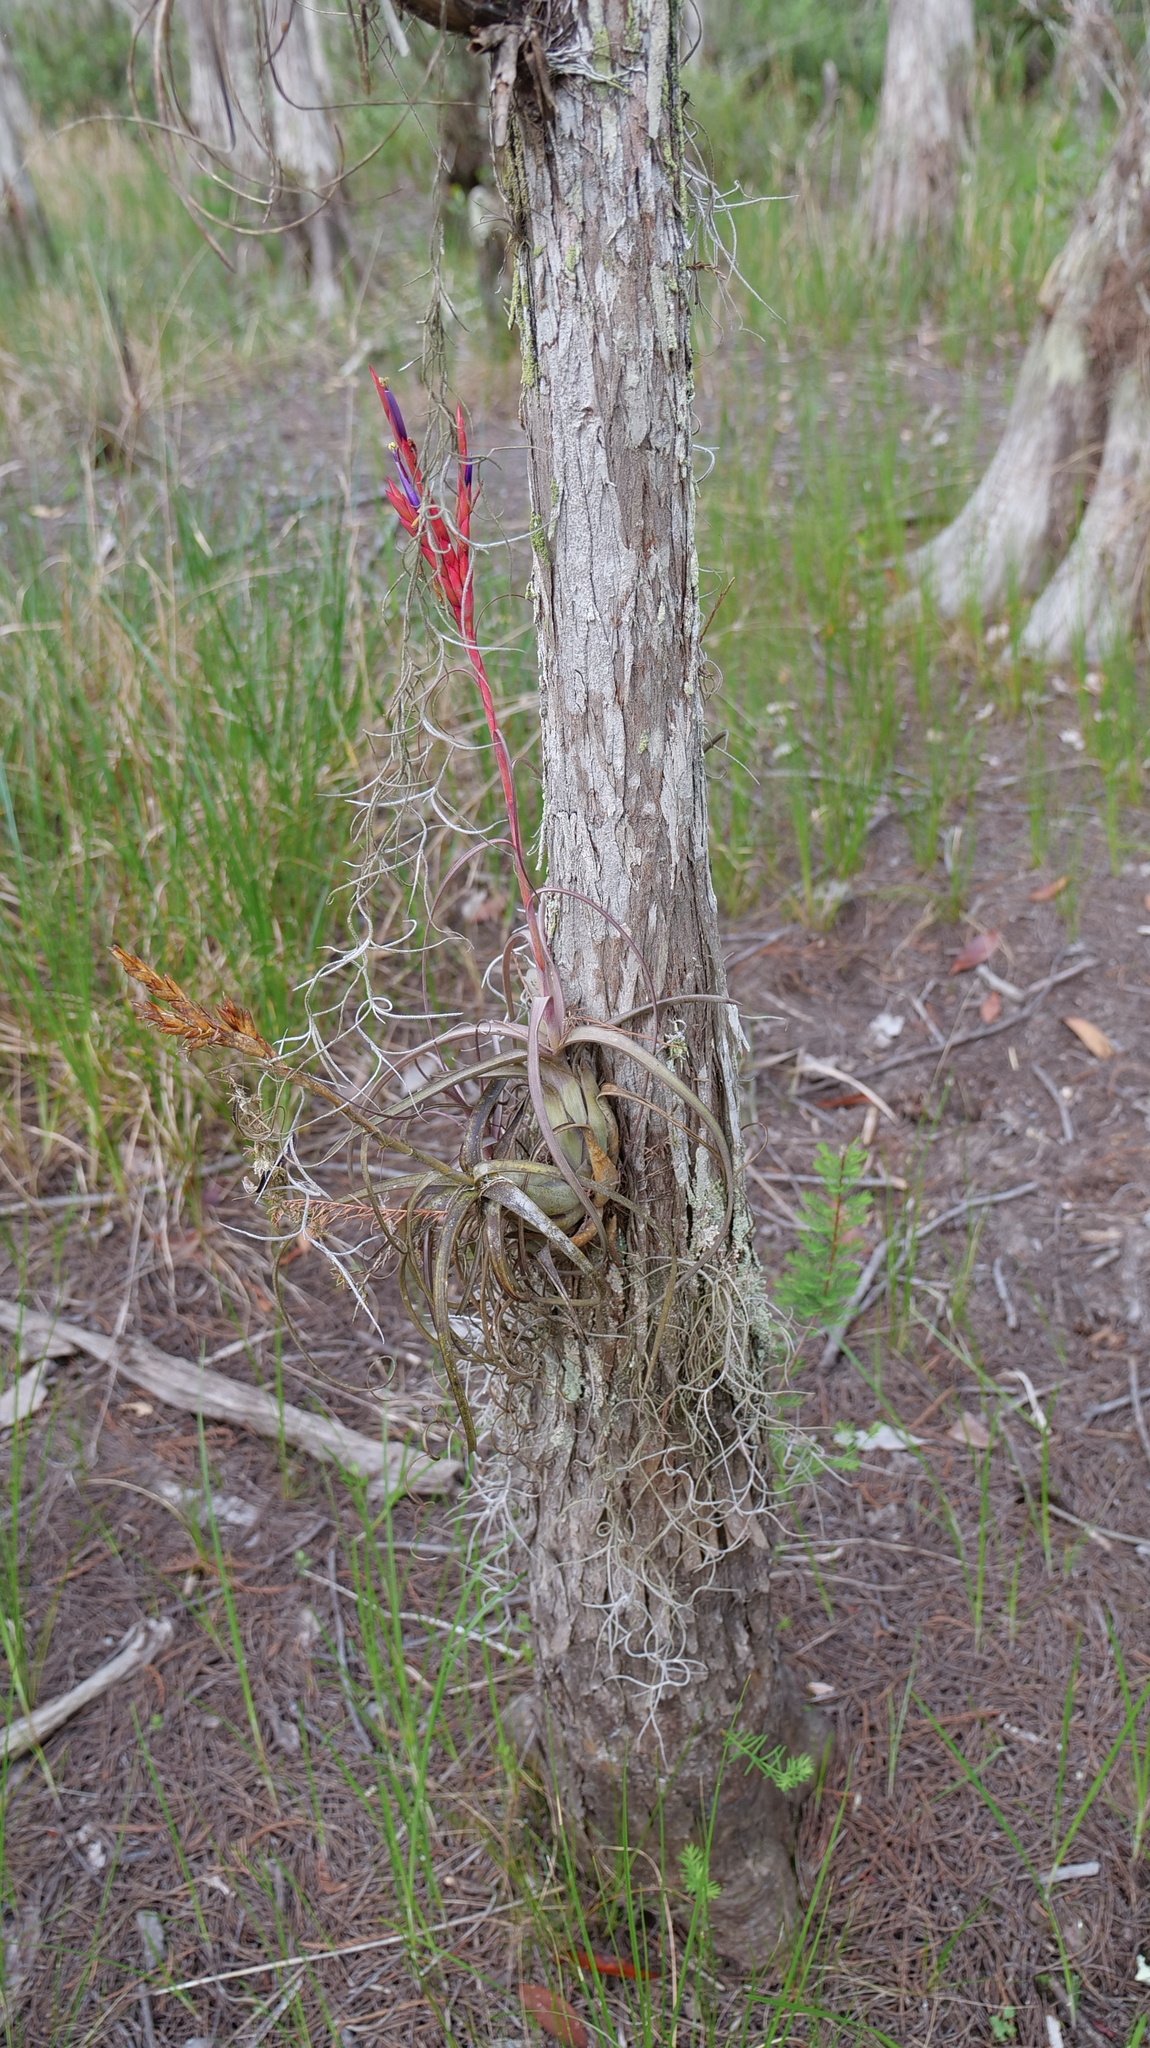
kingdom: Plantae
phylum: Tracheophyta
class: Liliopsida
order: Poales
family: Bromeliaceae
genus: Tillandsia
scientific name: Tillandsia balbisiana
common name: Northern needleleaf
